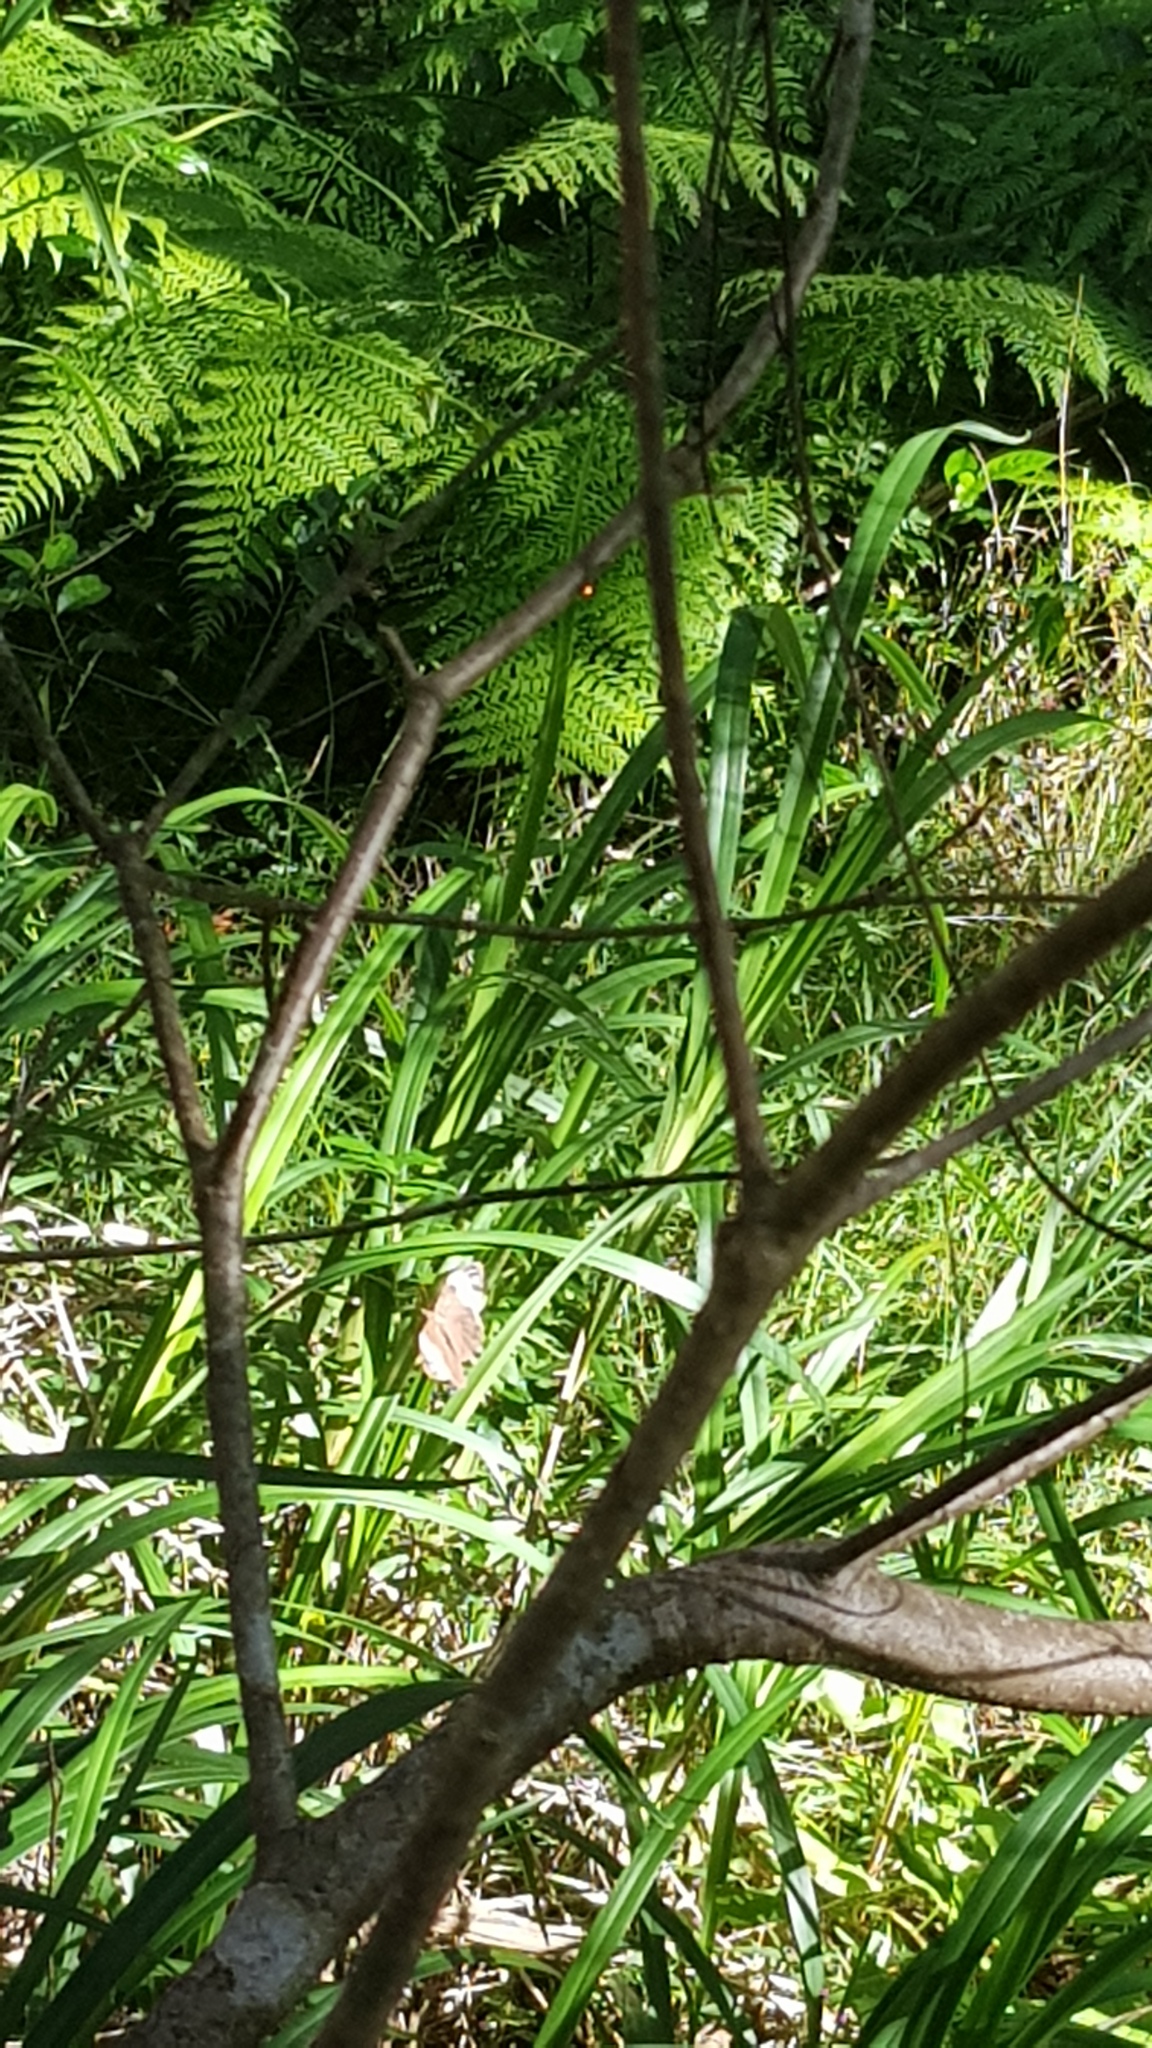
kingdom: Animalia
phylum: Arthropoda
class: Insecta
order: Lepidoptera
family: Nymphalidae
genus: Heteronympha
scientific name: Heteronympha mirifica
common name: Wonder brown
